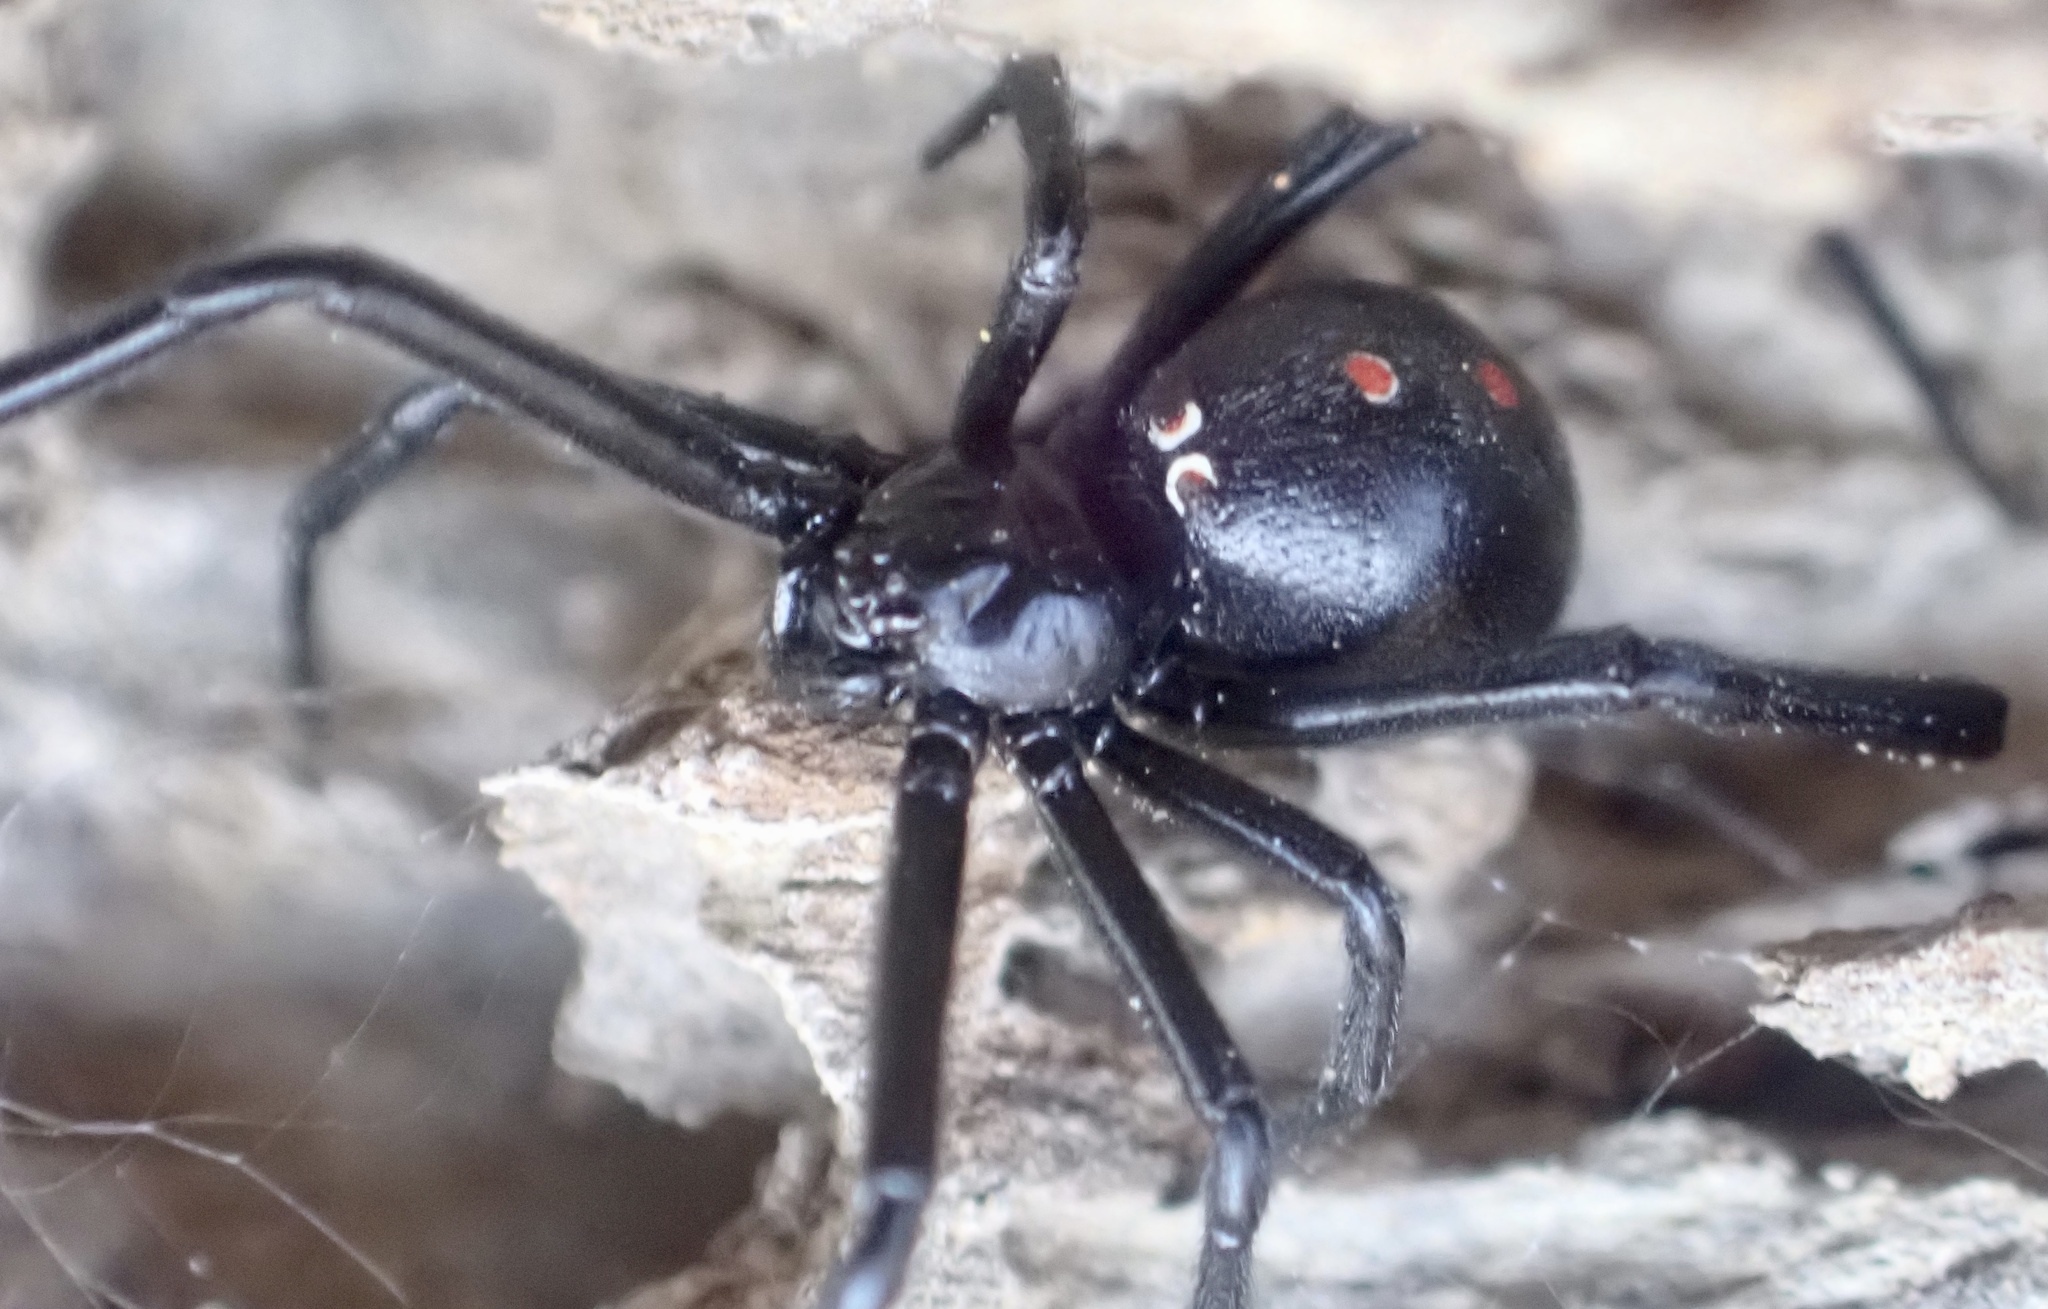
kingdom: Animalia
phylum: Arthropoda
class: Arachnida
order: Araneae
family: Theridiidae
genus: Latrodectus
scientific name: Latrodectus mactans
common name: Cobweb spiders
